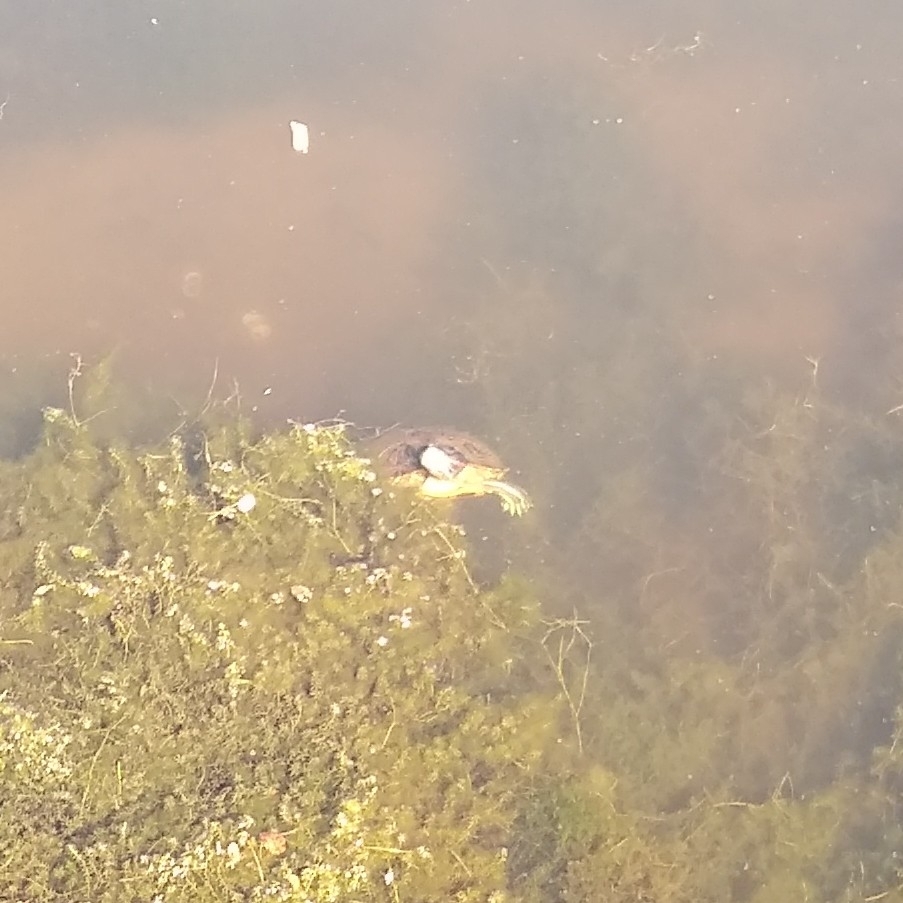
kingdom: Animalia
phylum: Chordata
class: Testudines
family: Emydidae
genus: Trachemys
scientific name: Trachemys scripta
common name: Slider
